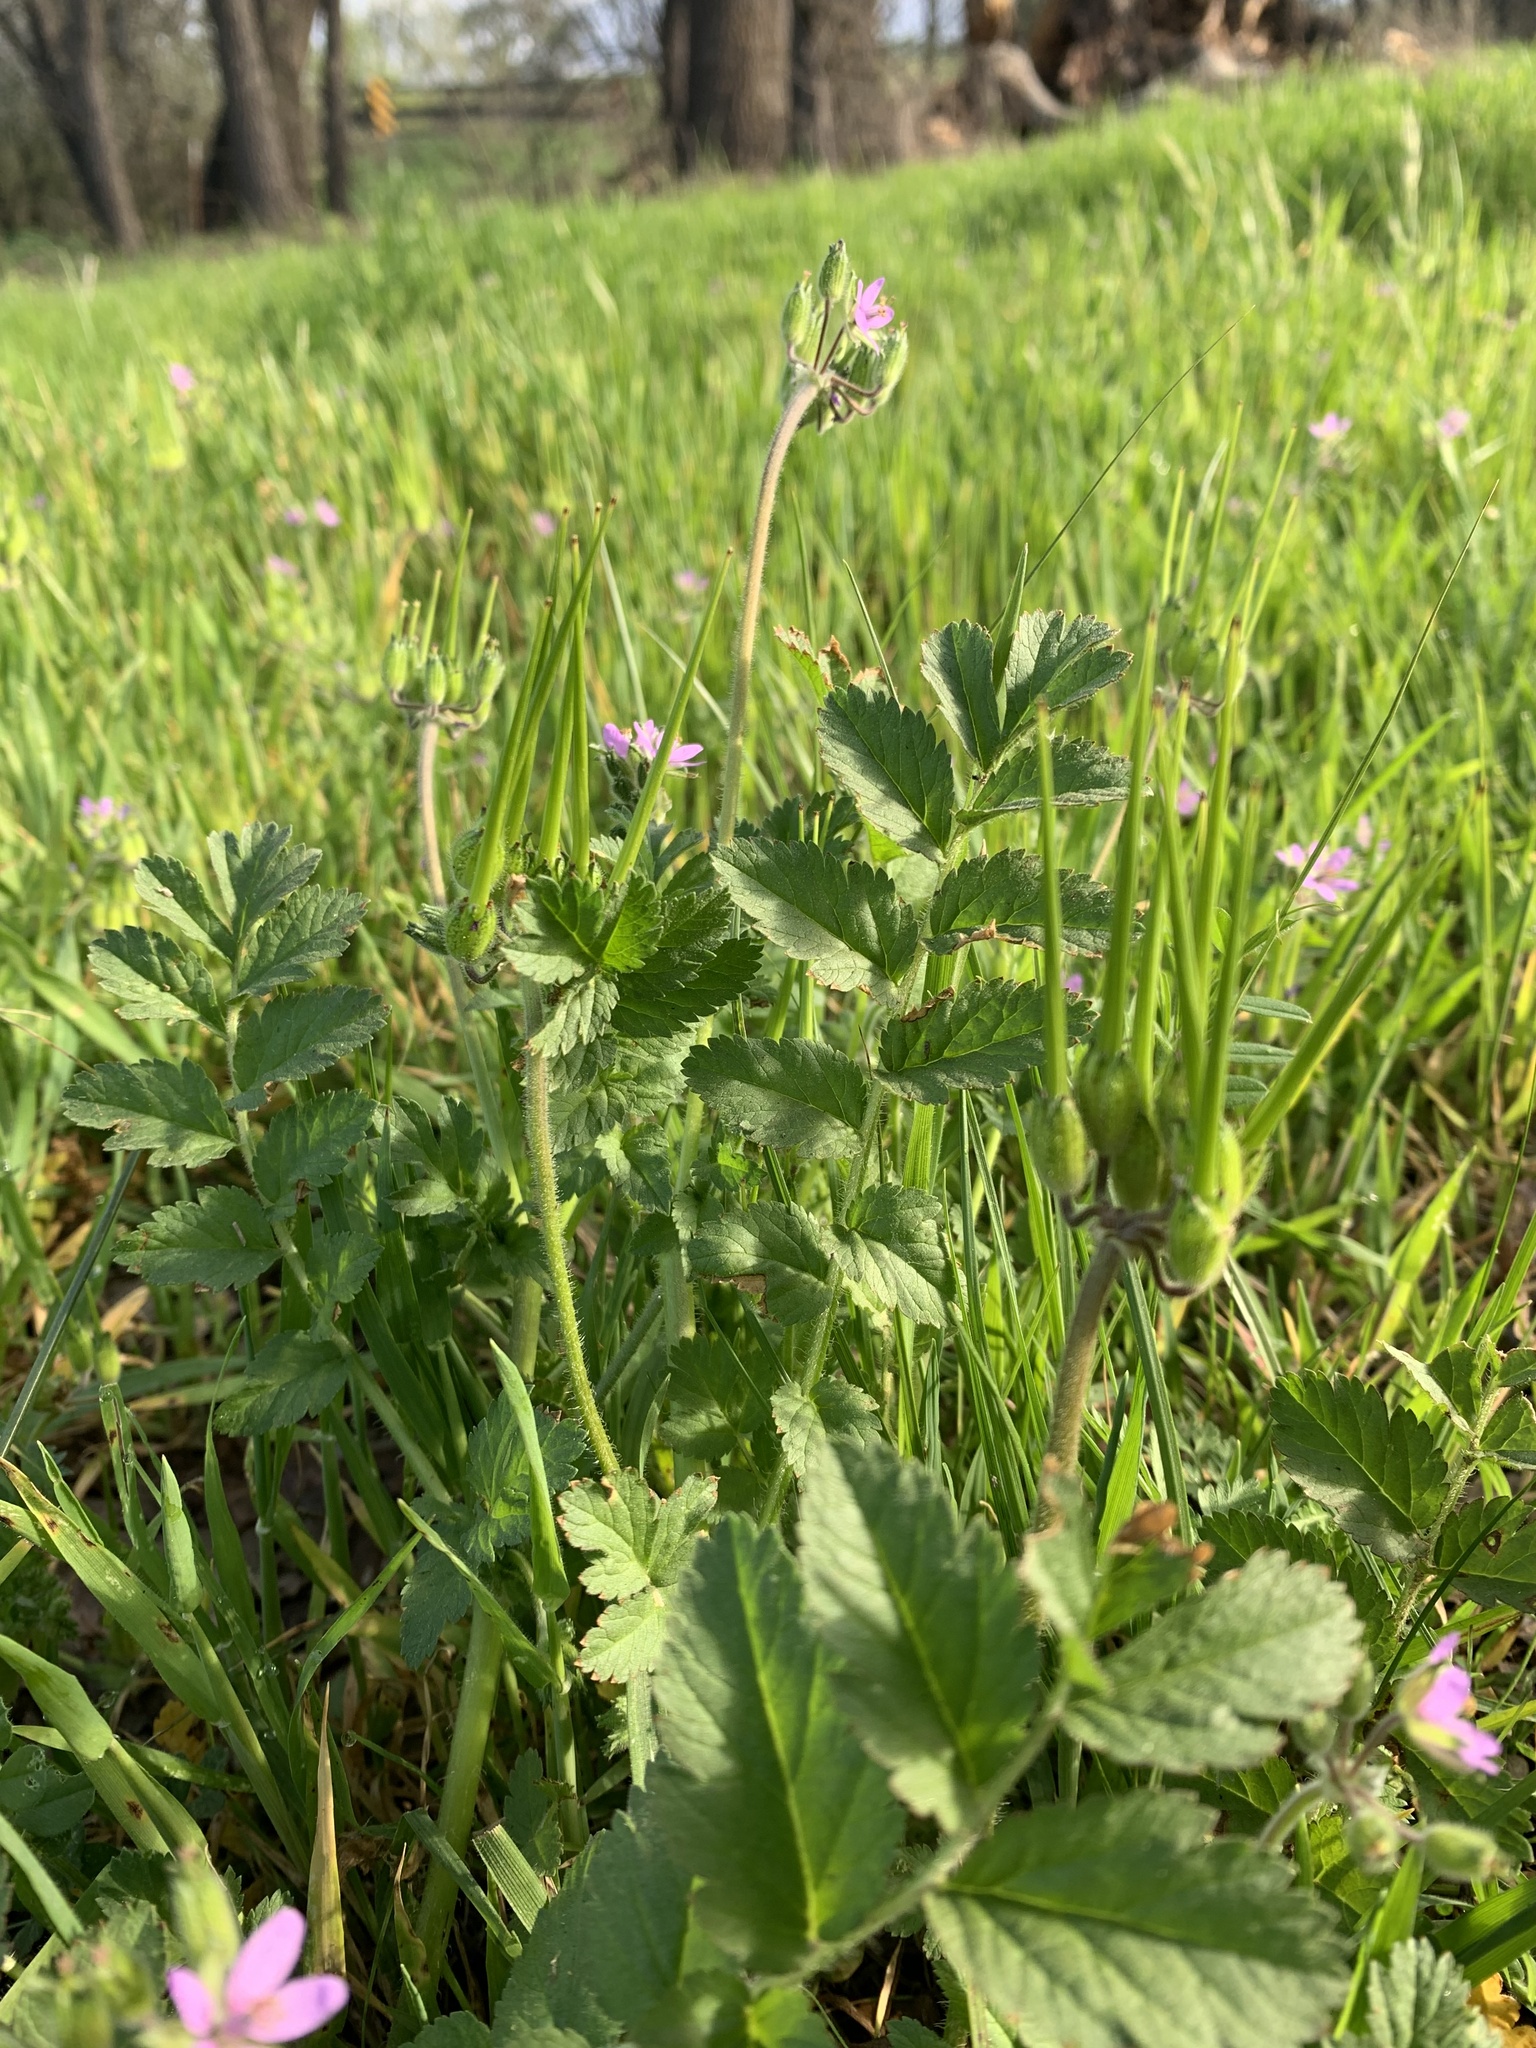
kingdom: Plantae
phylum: Tracheophyta
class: Magnoliopsida
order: Geraniales
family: Geraniaceae
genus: Erodium
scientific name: Erodium moschatum
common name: Musk stork's-bill
